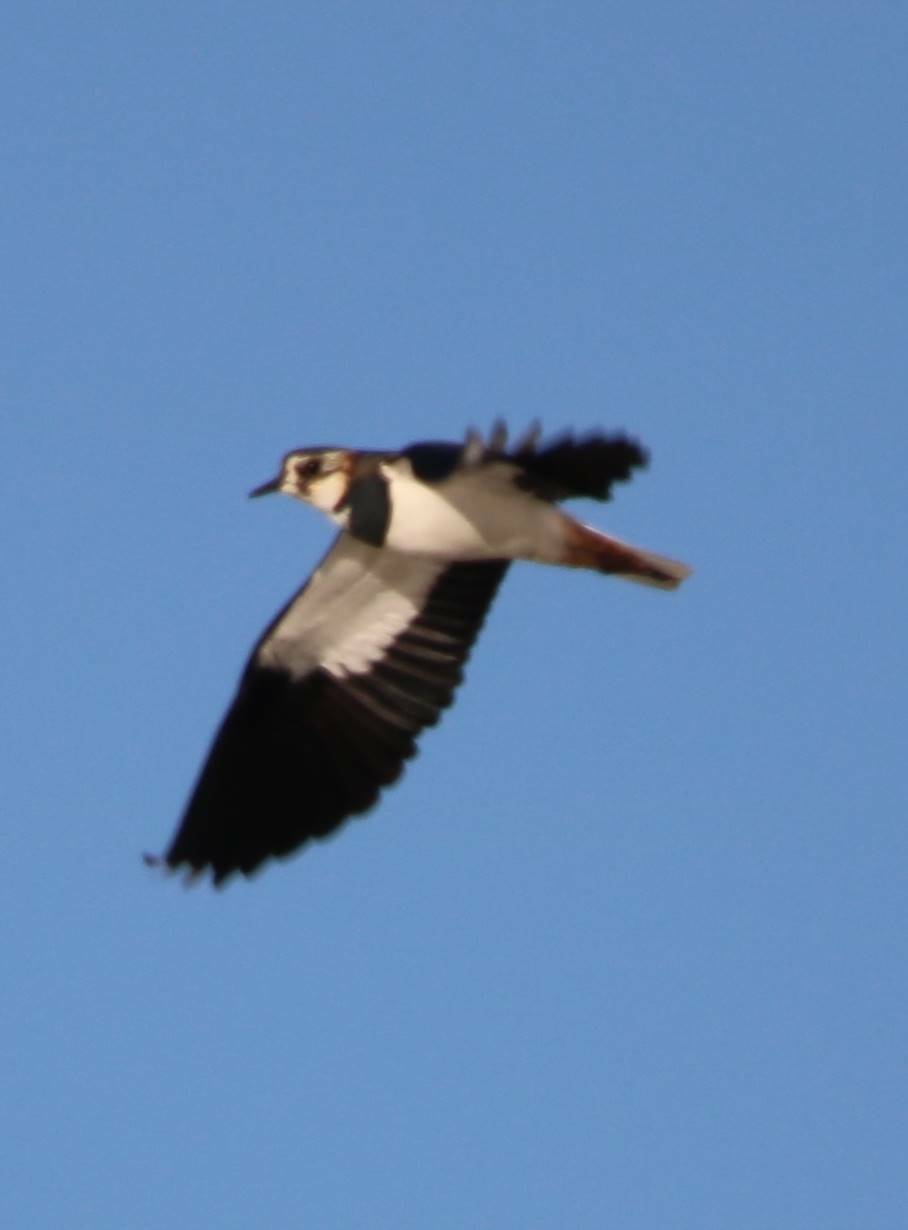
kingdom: Animalia
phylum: Chordata
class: Aves
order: Charadriiformes
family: Charadriidae
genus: Vanellus
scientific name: Vanellus vanellus
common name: Northern lapwing
